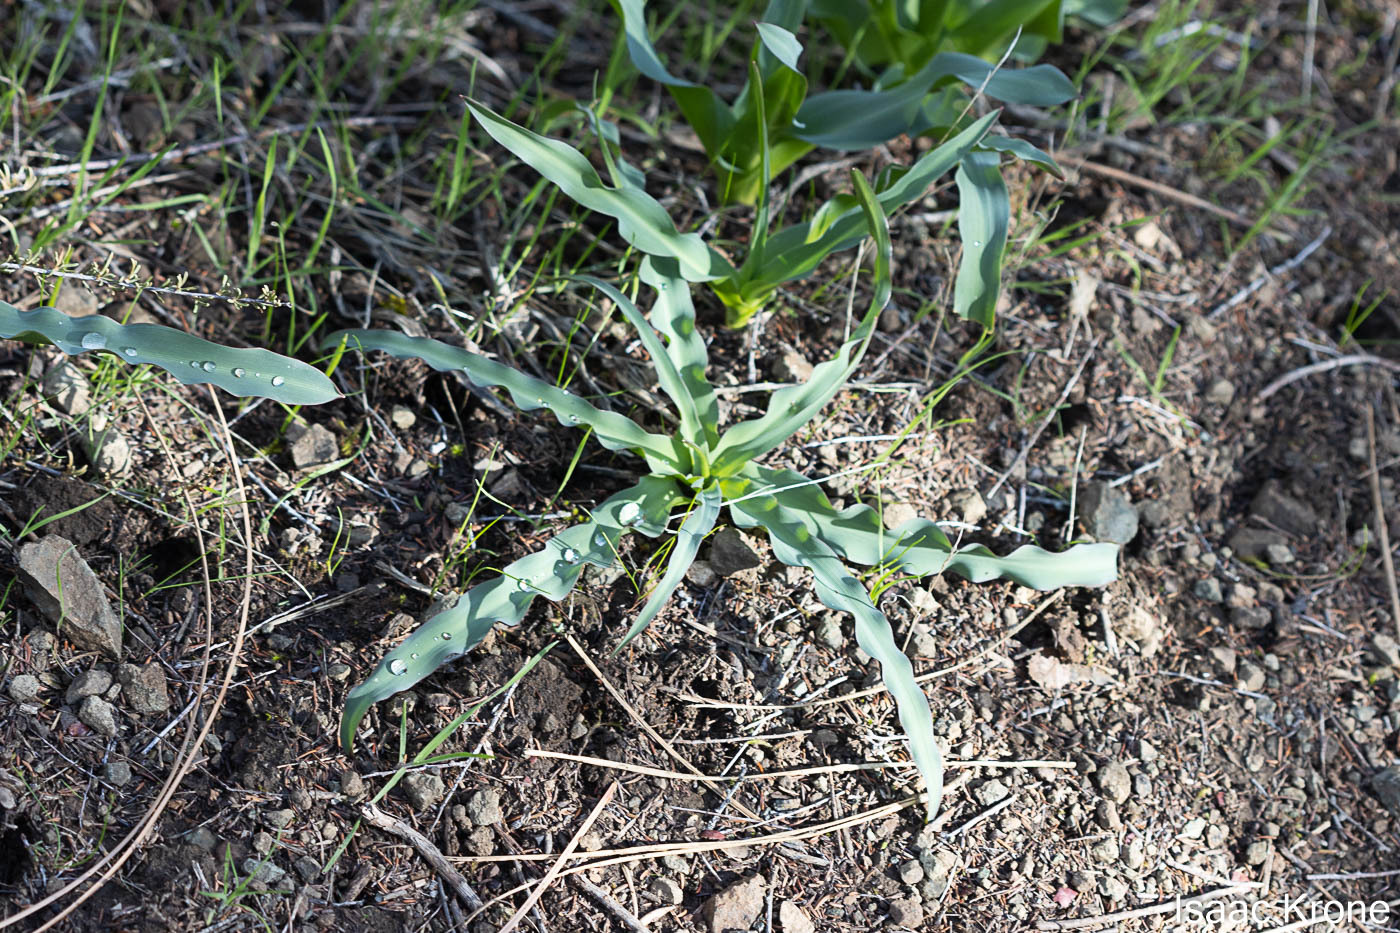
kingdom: Plantae
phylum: Tracheophyta
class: Liliopsida
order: Asparagales
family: Asparagaceae
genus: Chlorogalum
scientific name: Chlorogalum pomeridianum
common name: Amole
